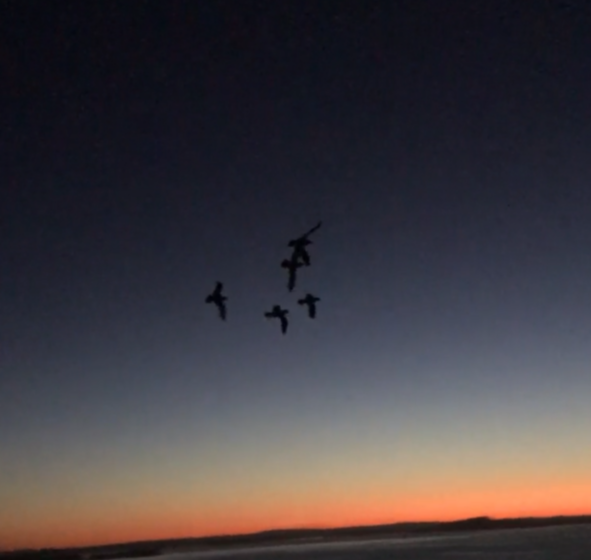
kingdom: Animalia
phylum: Chordata
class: Aves
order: Procellariiformes
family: Procellariidae
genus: Pterodroma
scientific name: Pterodroma macroptera
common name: Great-winged petrel
